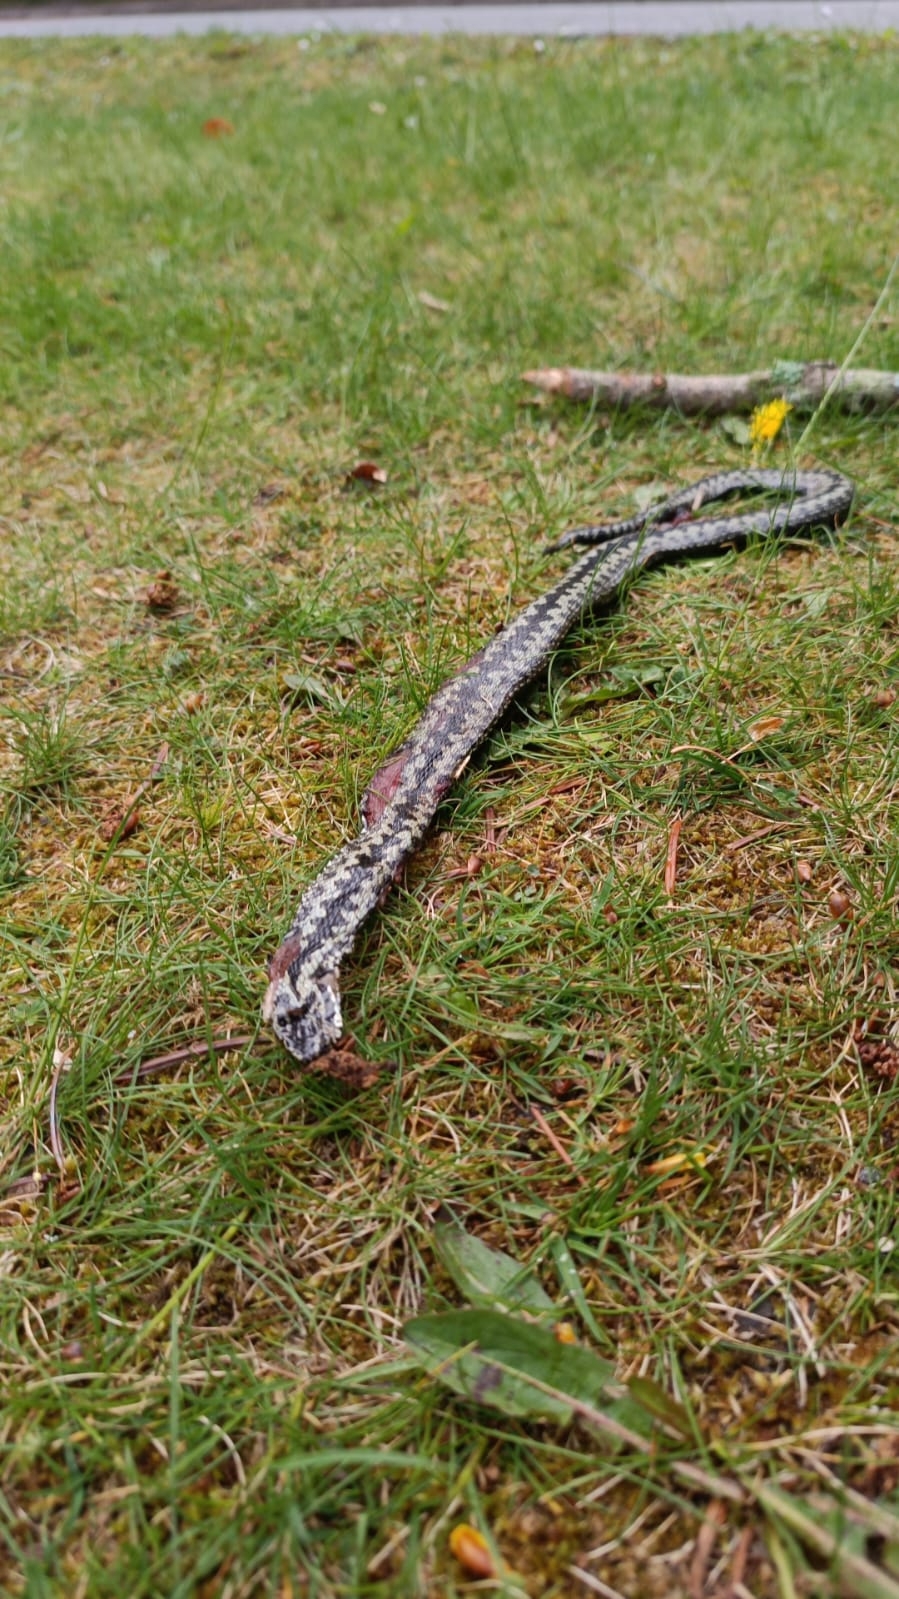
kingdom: Animalia
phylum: Chordata
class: Squamata
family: Viperidae
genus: Vipera
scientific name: Vipera berus
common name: Adder
